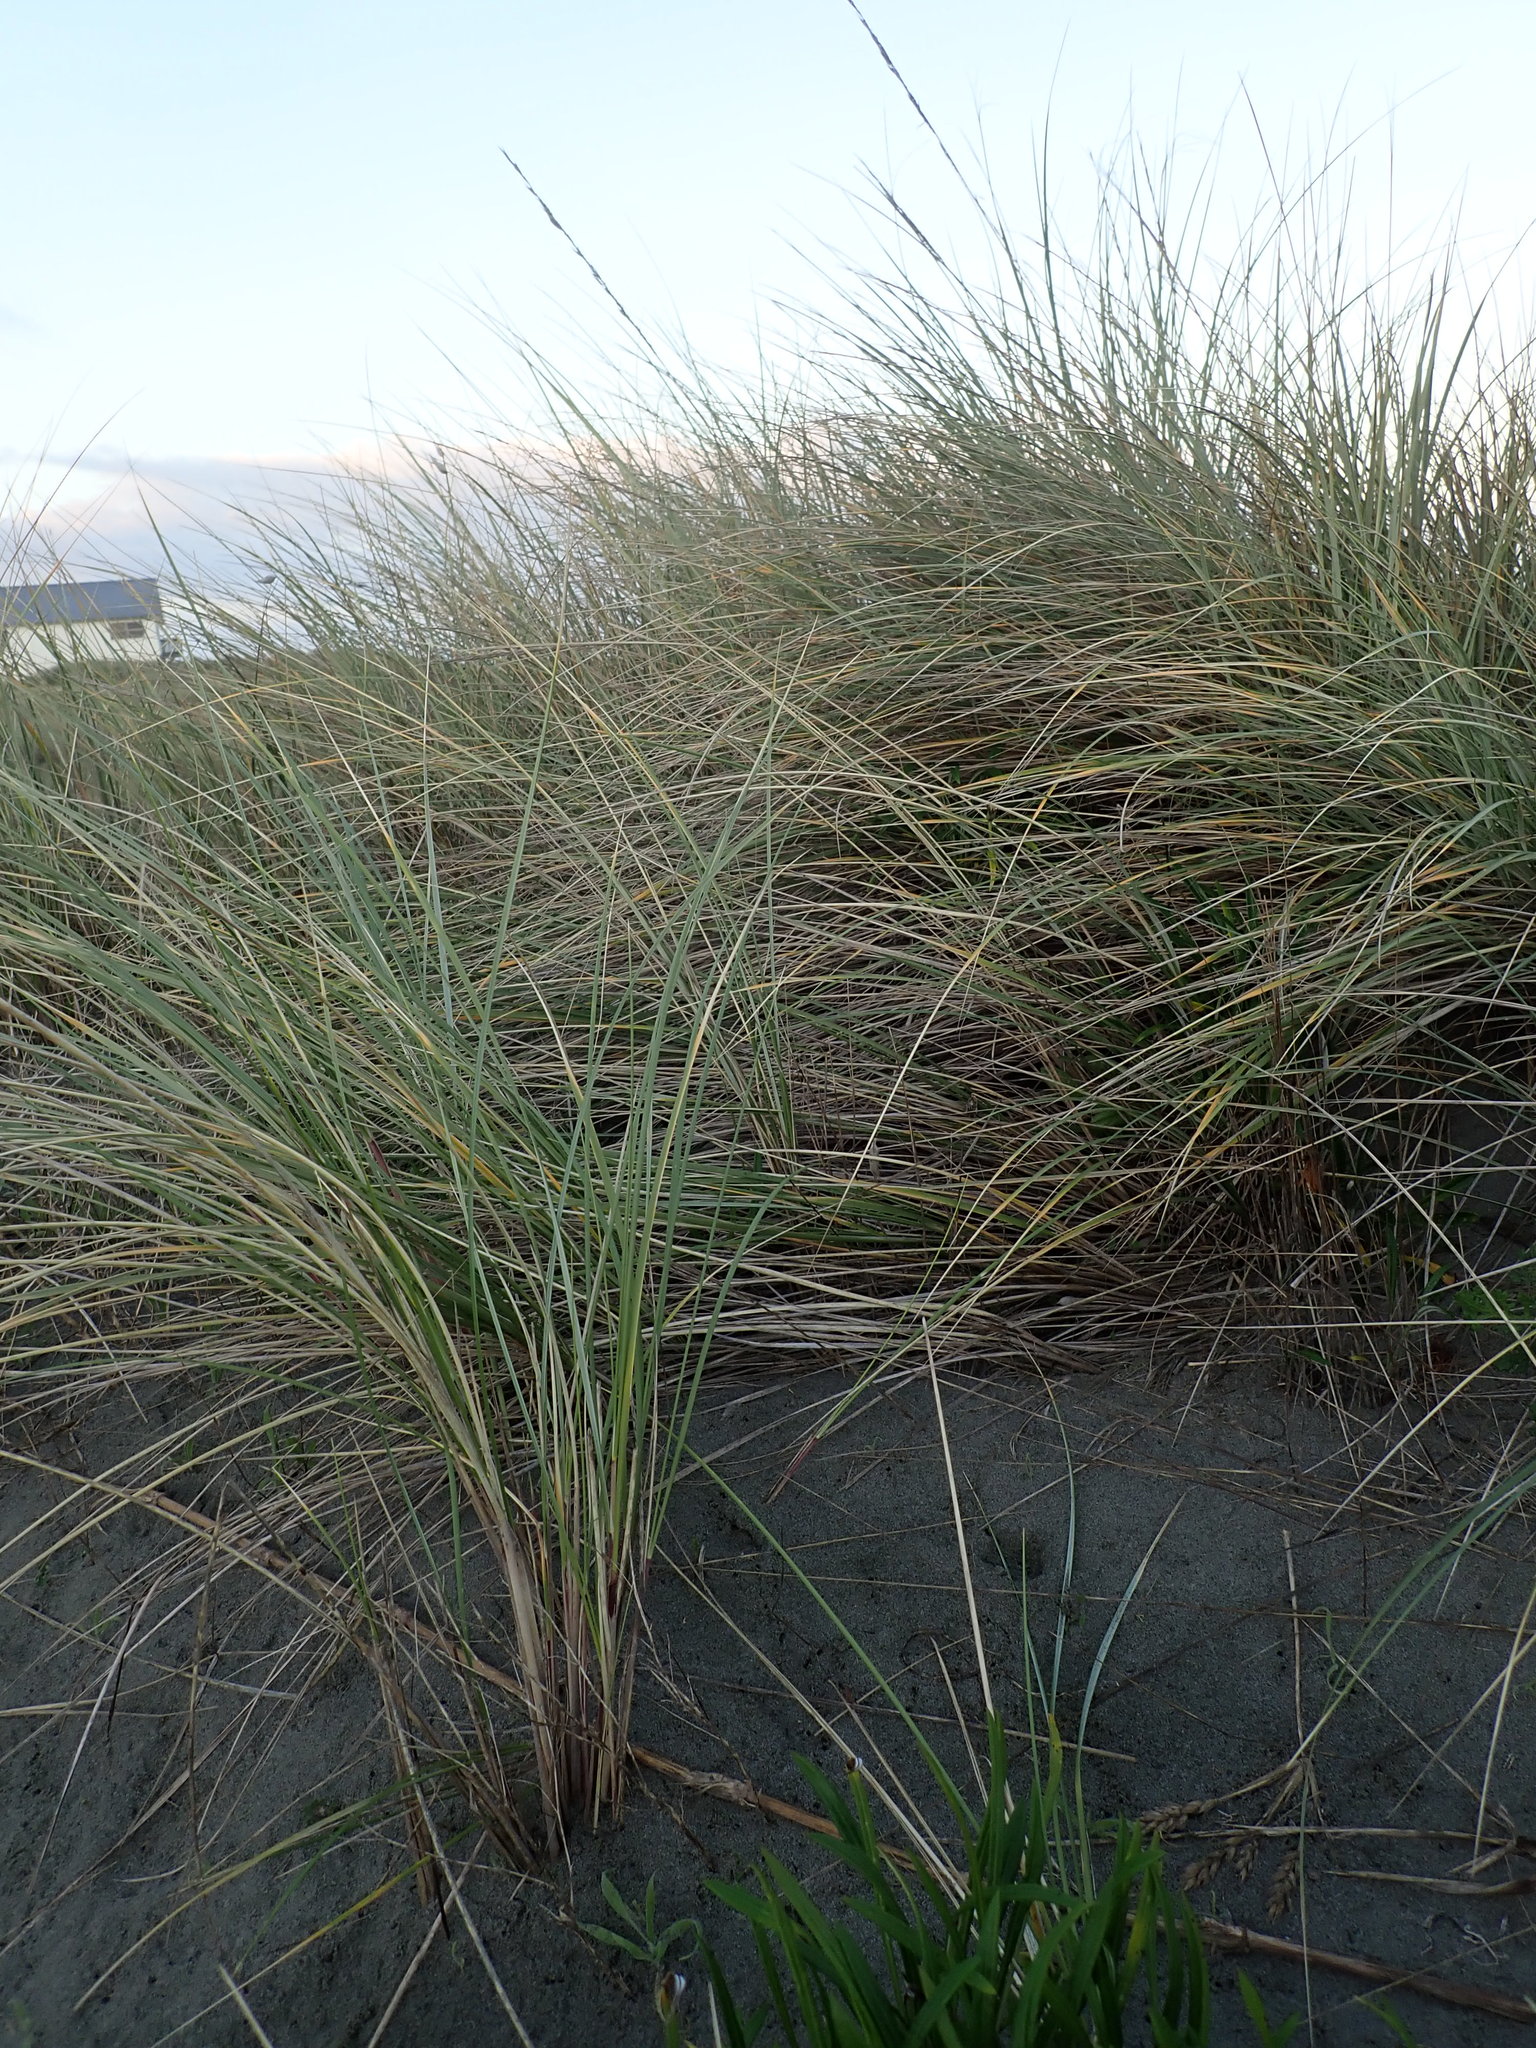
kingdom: Plantae
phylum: Tracheophyta
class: Liliopsida
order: Poales
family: Poaceae
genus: Calamagrostis
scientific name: Calamagrostis arenaria
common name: European beachgrass
